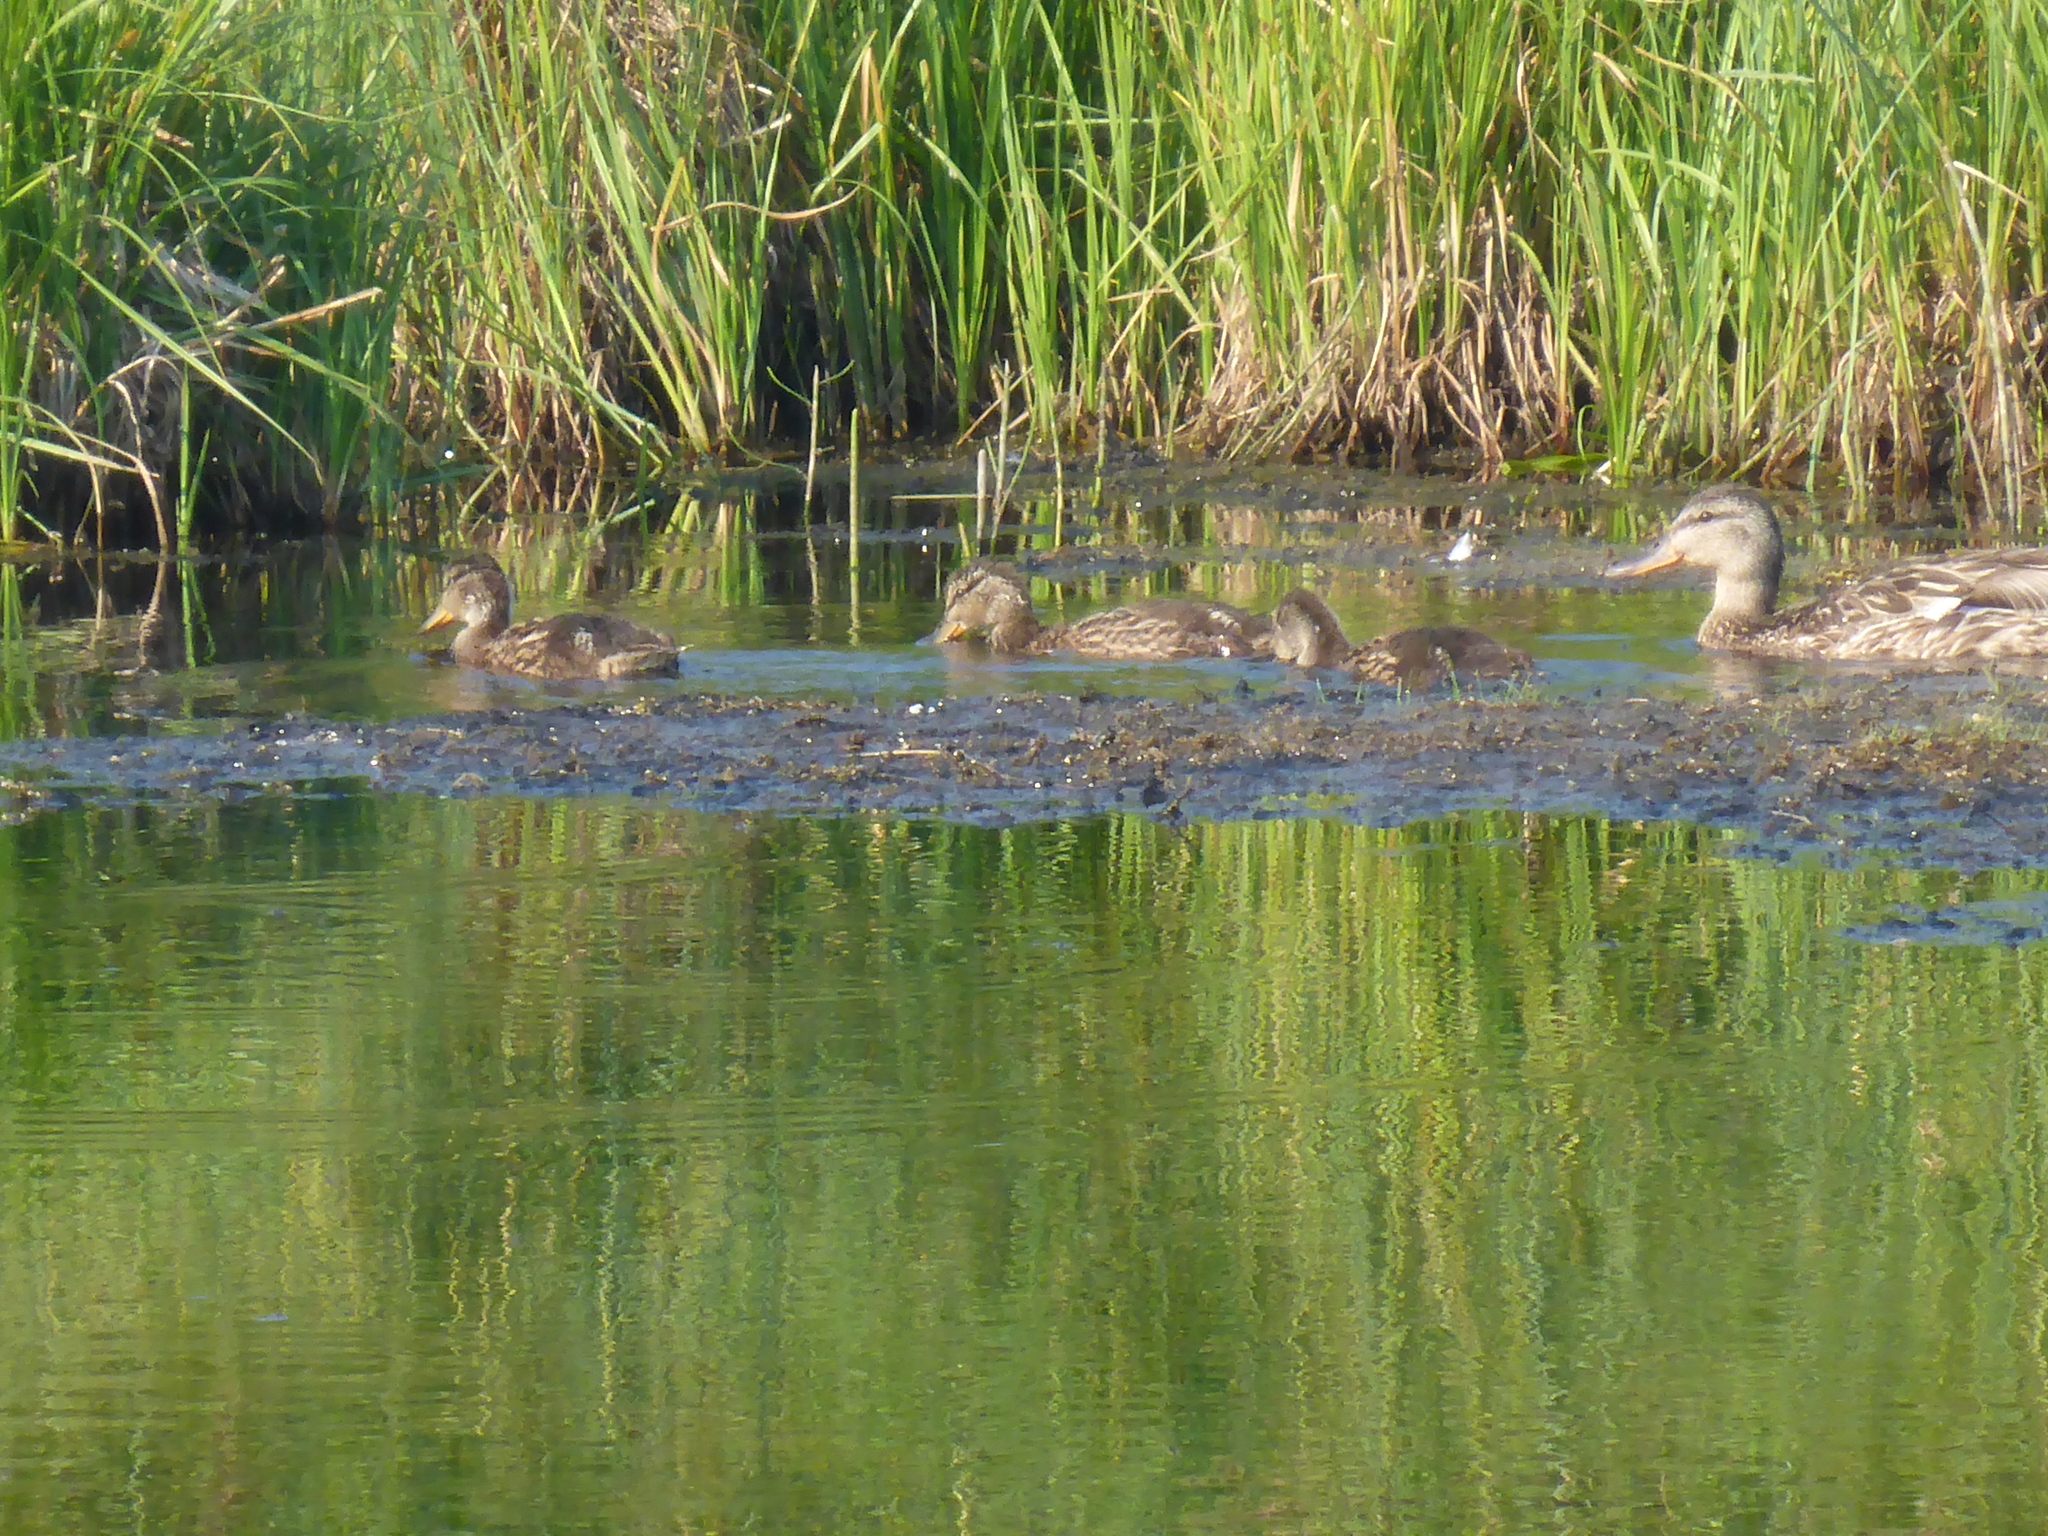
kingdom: Animalia
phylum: Chordata
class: Aves
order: Anseriformes
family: Anatidae
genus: Anas
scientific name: Anas platyrhynchos
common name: Mallard
